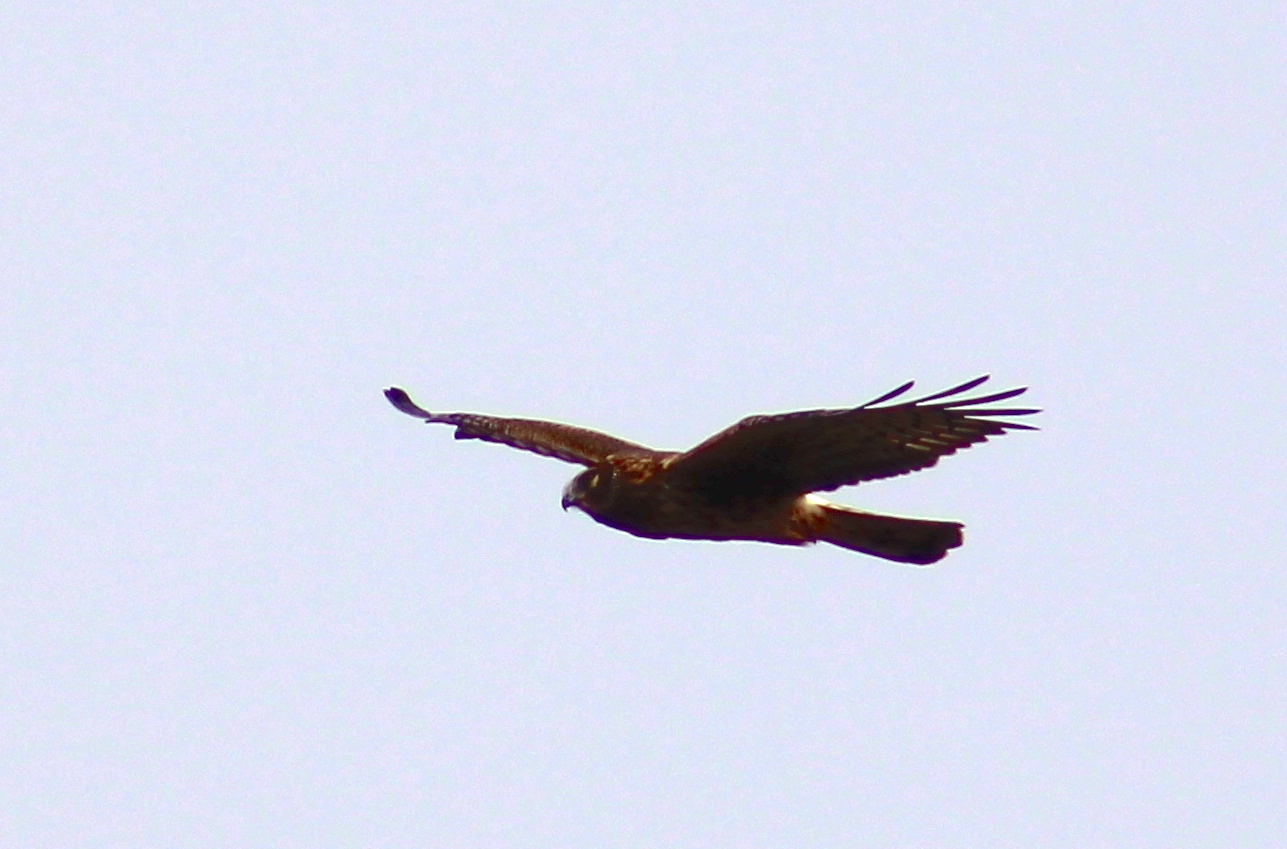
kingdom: Animalia
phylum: Chordata
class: Aves
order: Accipitriformes
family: Accipitridae
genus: Circus
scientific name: Circus cyaneus
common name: Hen harrier
